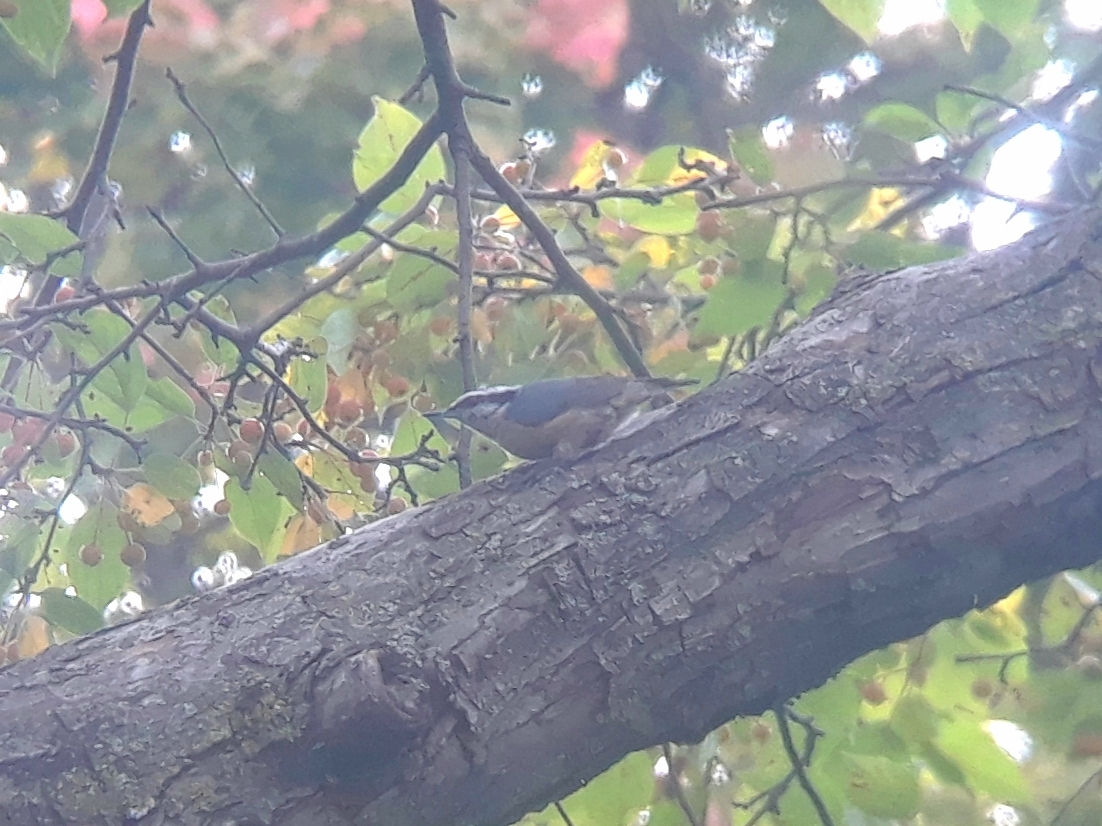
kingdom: Animalia
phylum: Chordata
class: Aves
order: Passeriformes
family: Sittidae
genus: Sitta
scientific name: Sitta canadensis
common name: Red-breasted nuthatch
